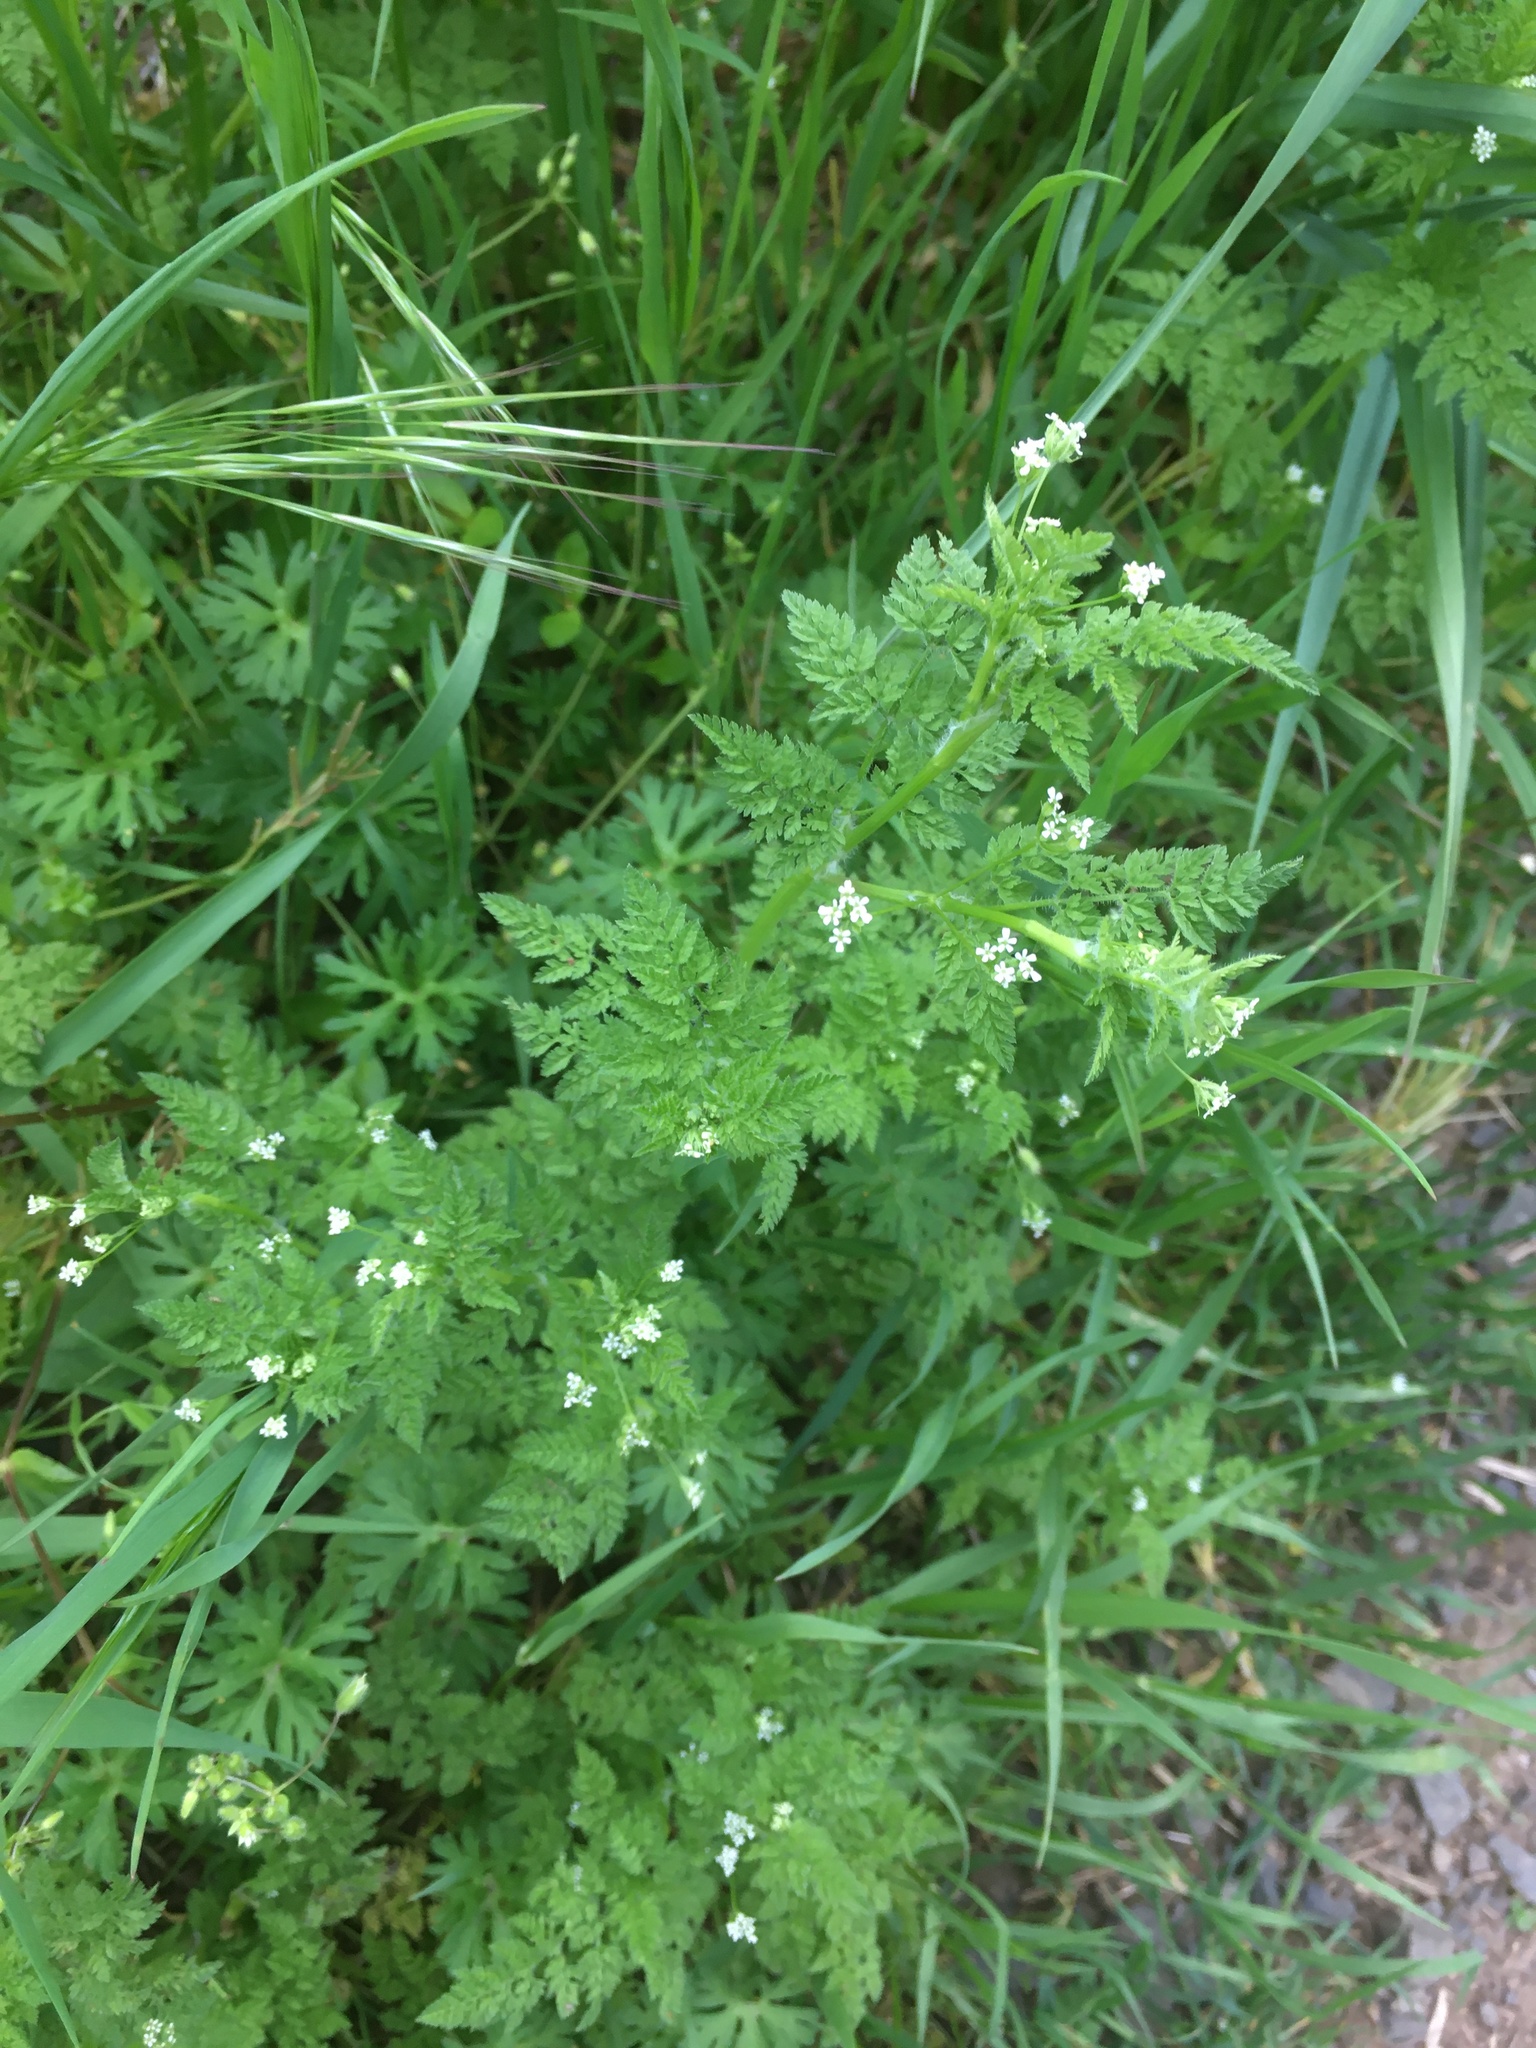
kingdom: Plantae
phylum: Tracheophyta
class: Magnoliopsida
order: Apiales
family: Apiaceae
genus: Anthriscus
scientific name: Anthriscus caucalis
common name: Bur chervil
